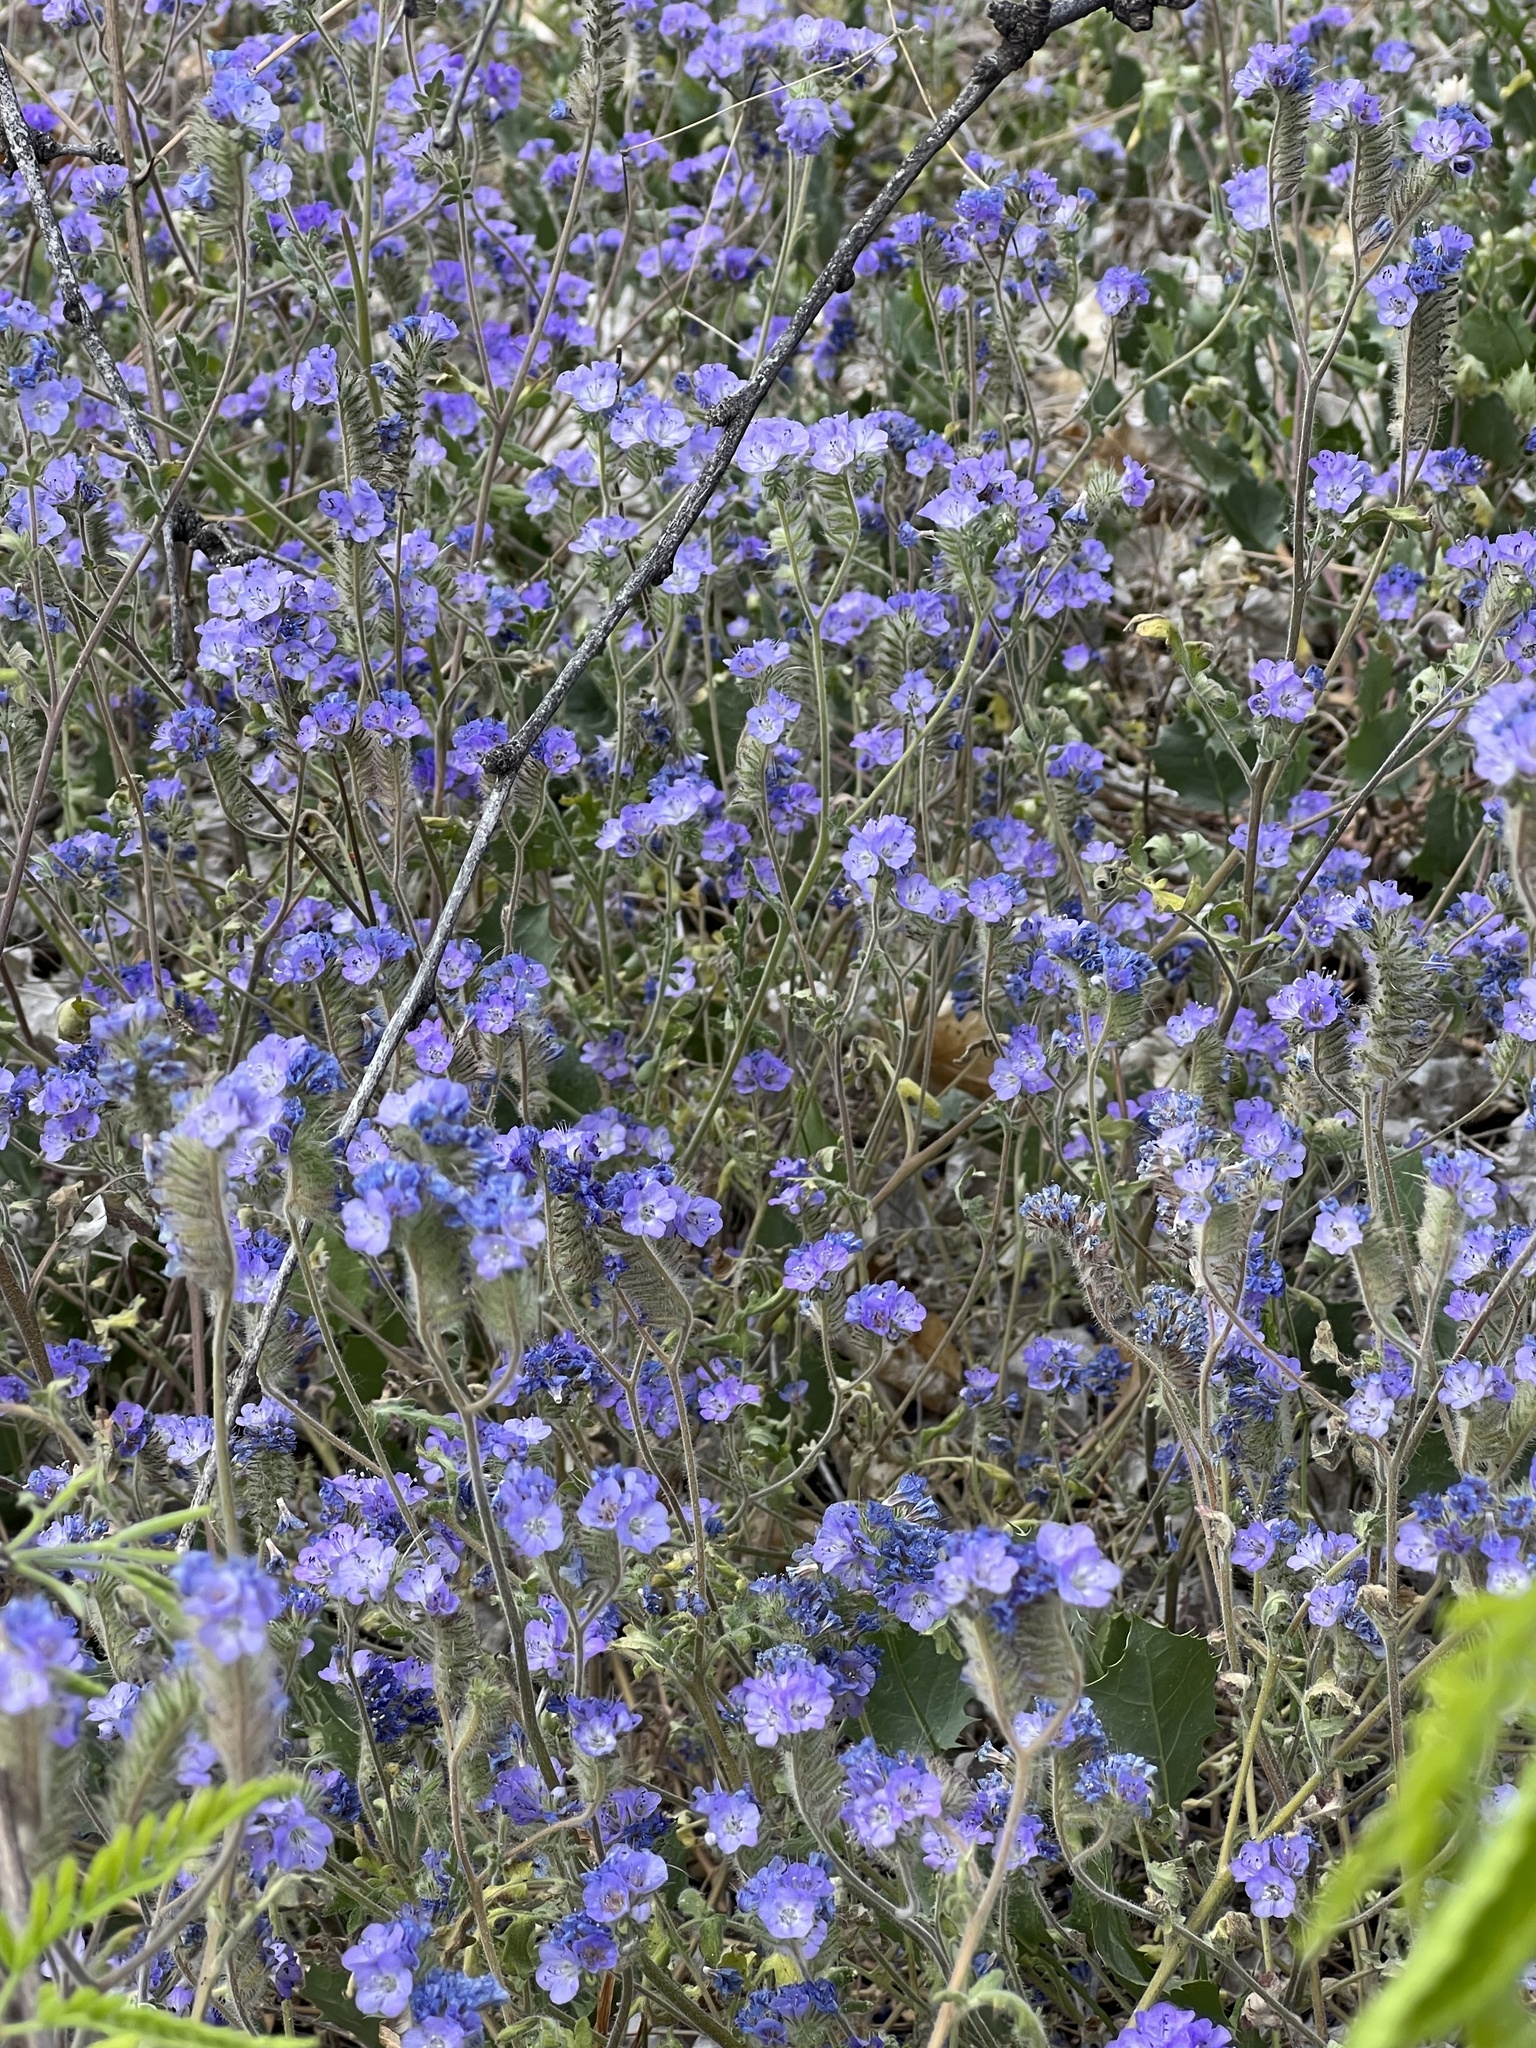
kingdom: Plantae
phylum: Tracheophyta
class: Magnoliopsida
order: Boraginales
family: Hydrophyllaceae
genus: Phacelia
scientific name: Phacelia distans
